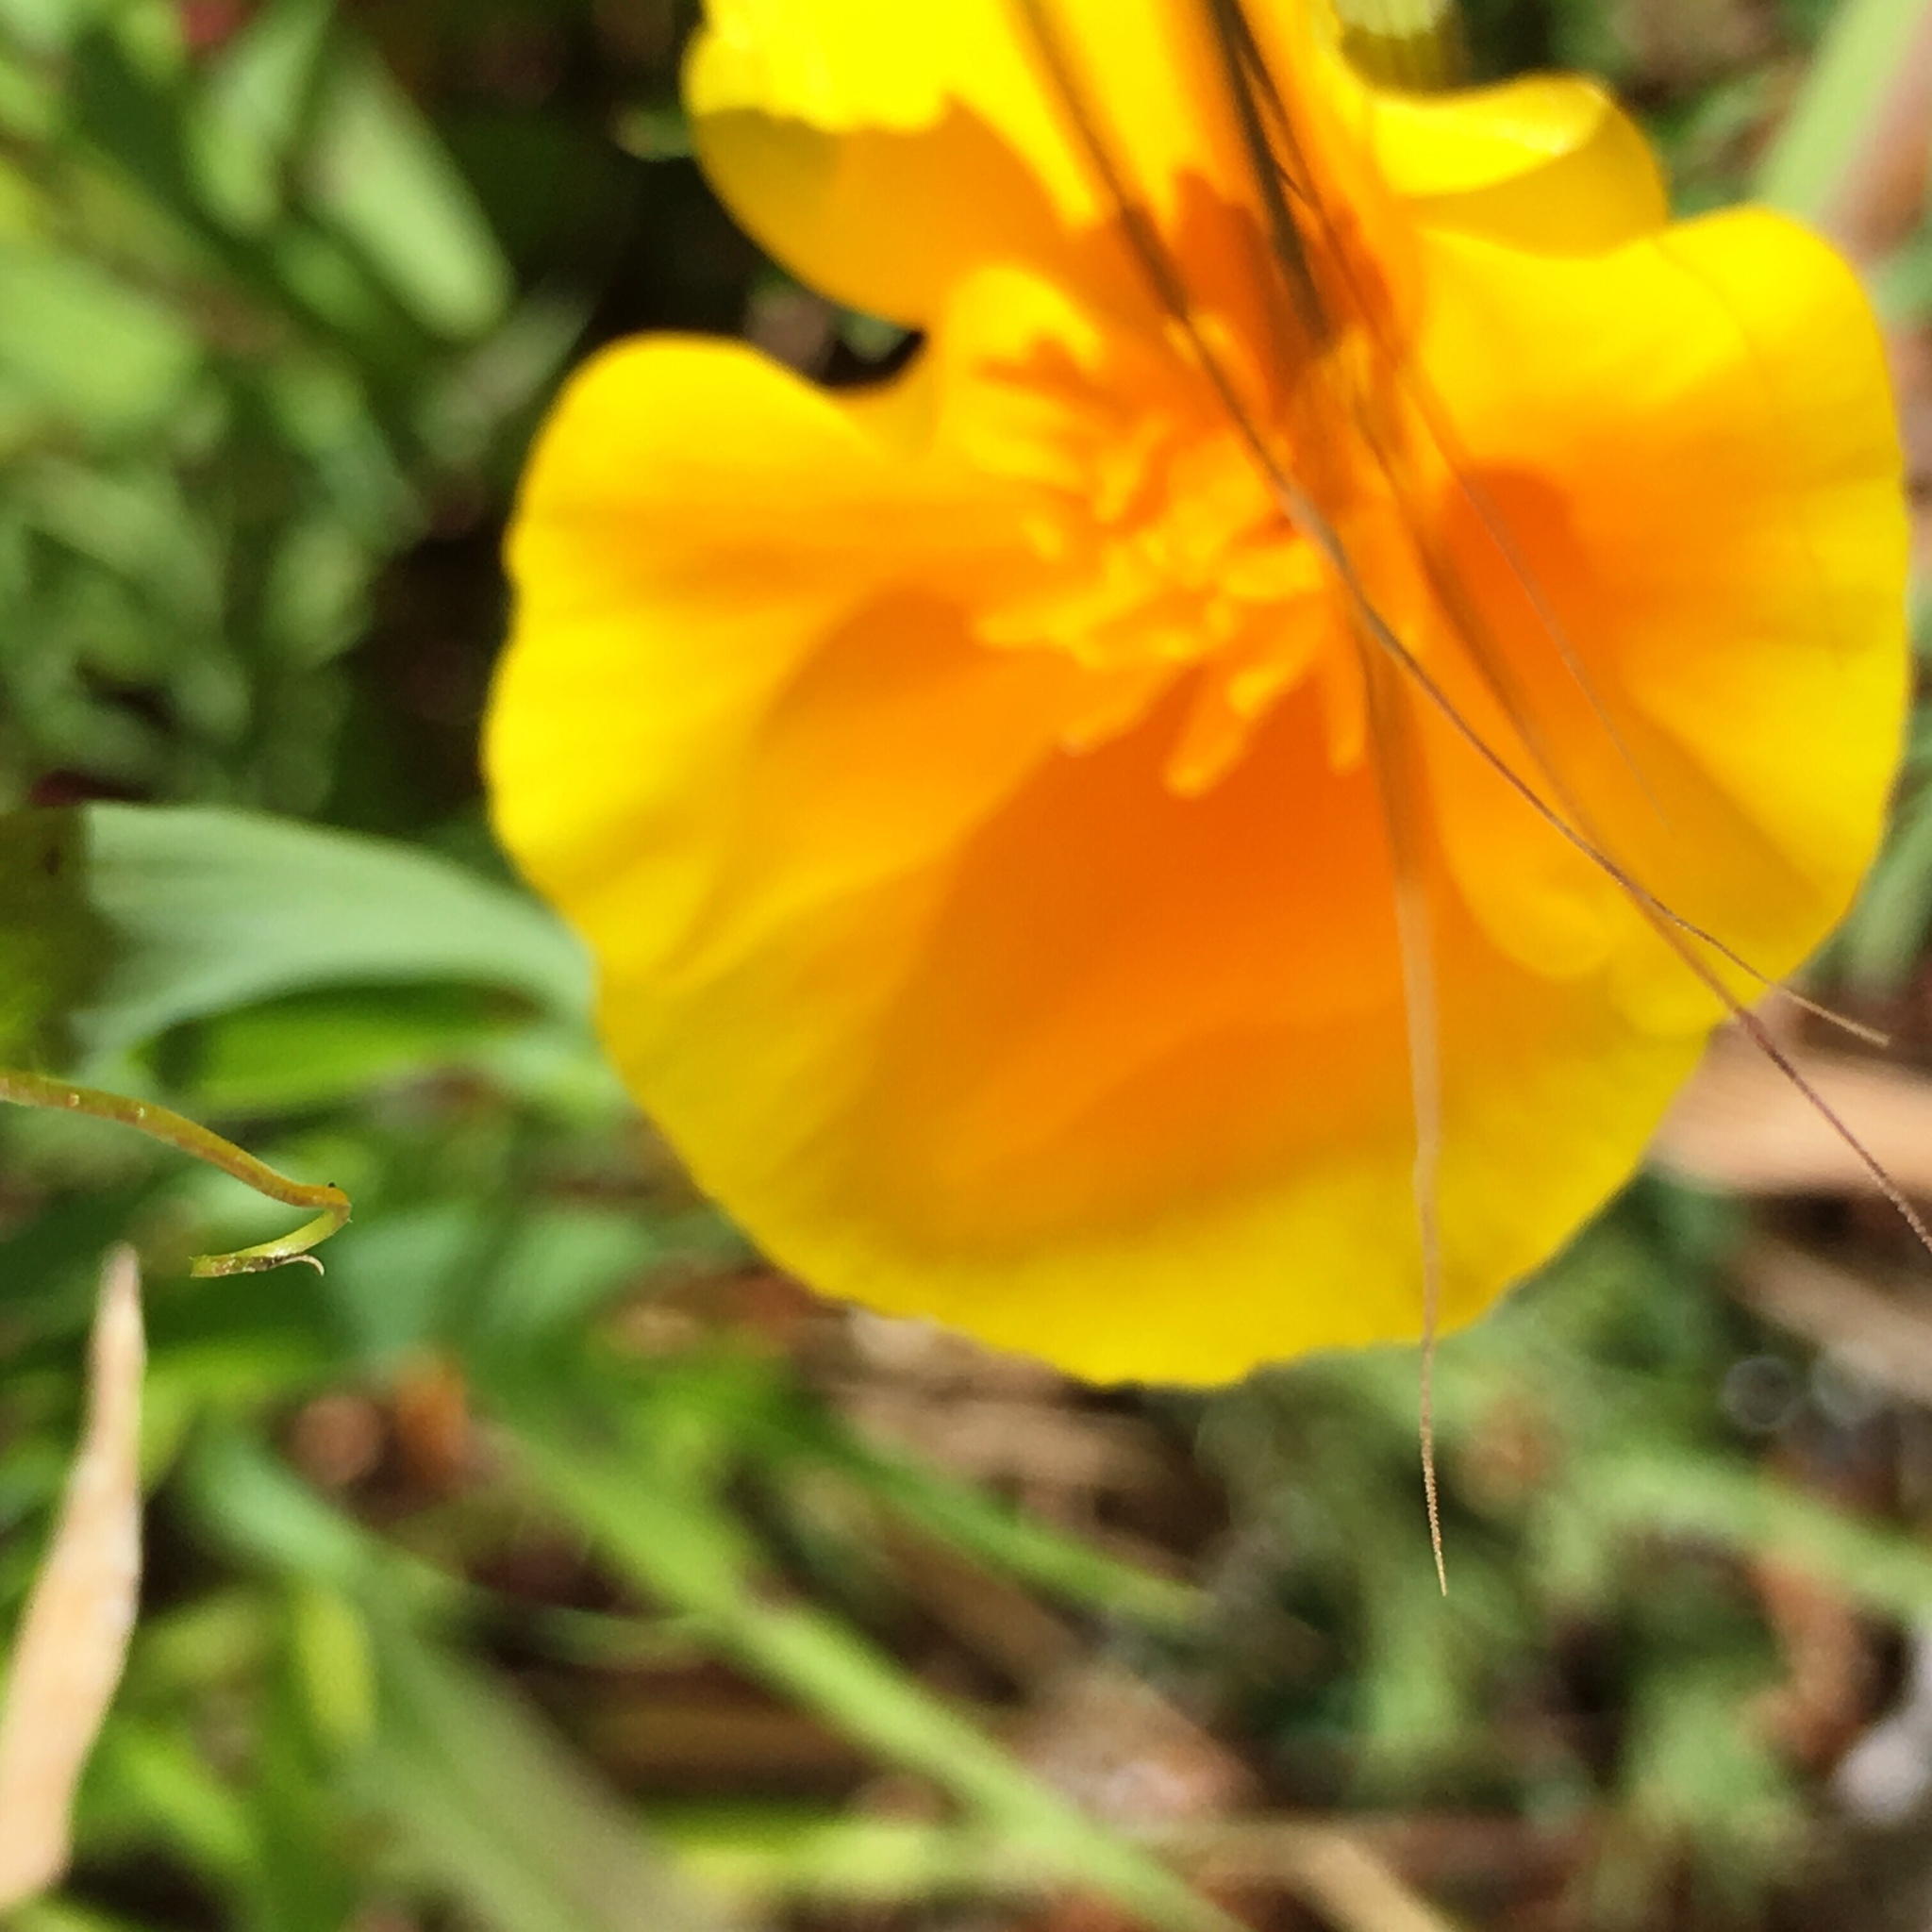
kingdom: Plantae
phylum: Tracheophyta
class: Magnoliopsida
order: Ranunculales
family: Papaveraceae
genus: Eschscholzia
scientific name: Eschscholzia californica
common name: California poppy
